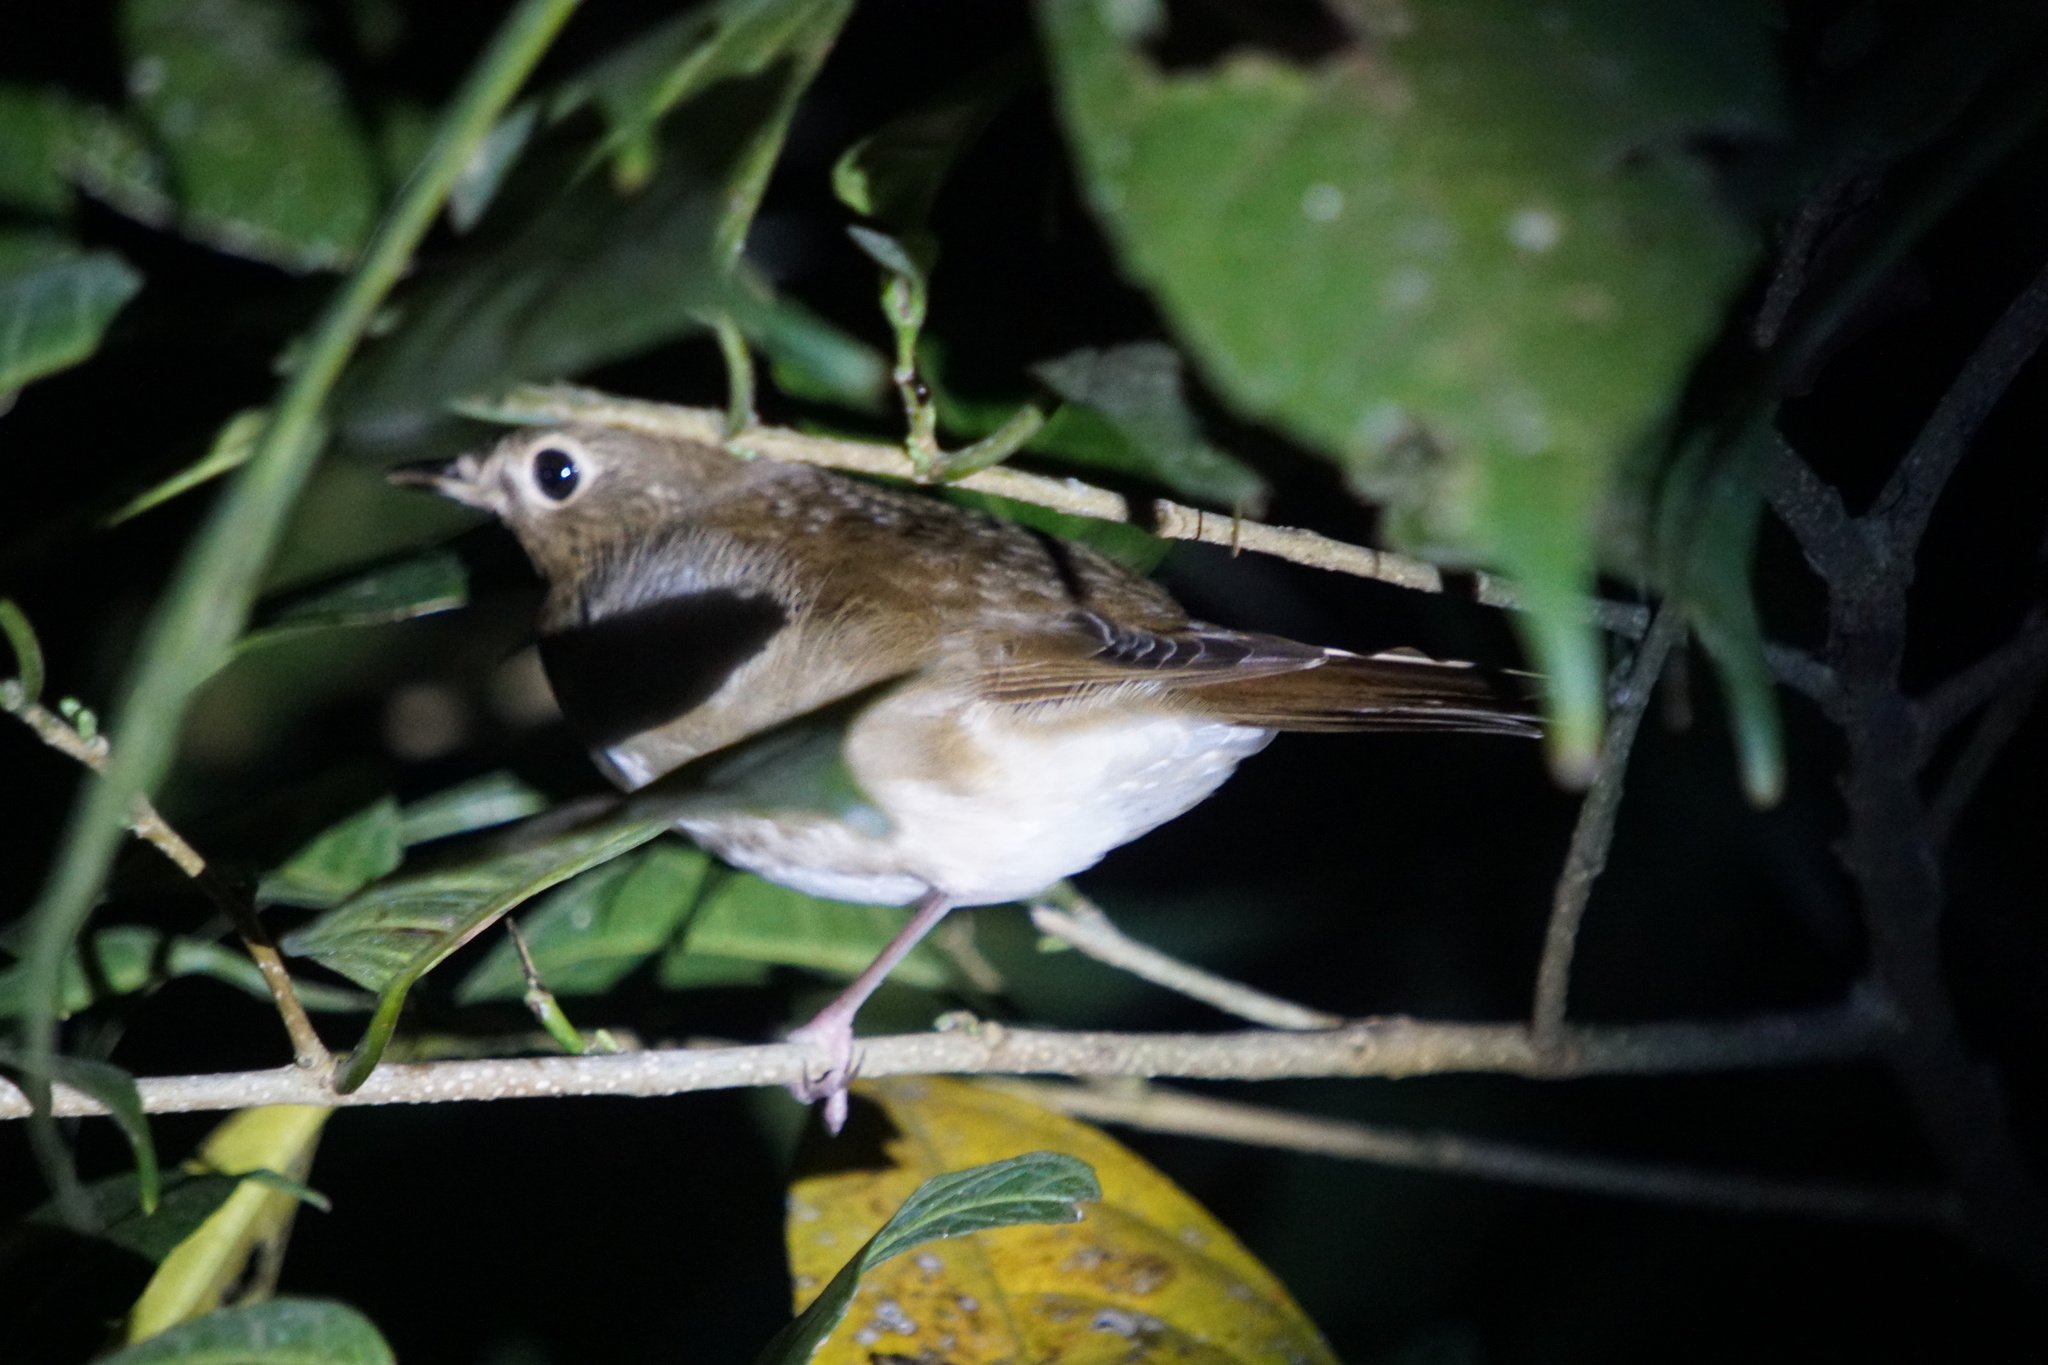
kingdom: Animalia
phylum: Chordata
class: Aves
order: Passeriformes
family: Turdidae
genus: Catharus
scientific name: Catharus ustulatus
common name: Swainson's thrush
